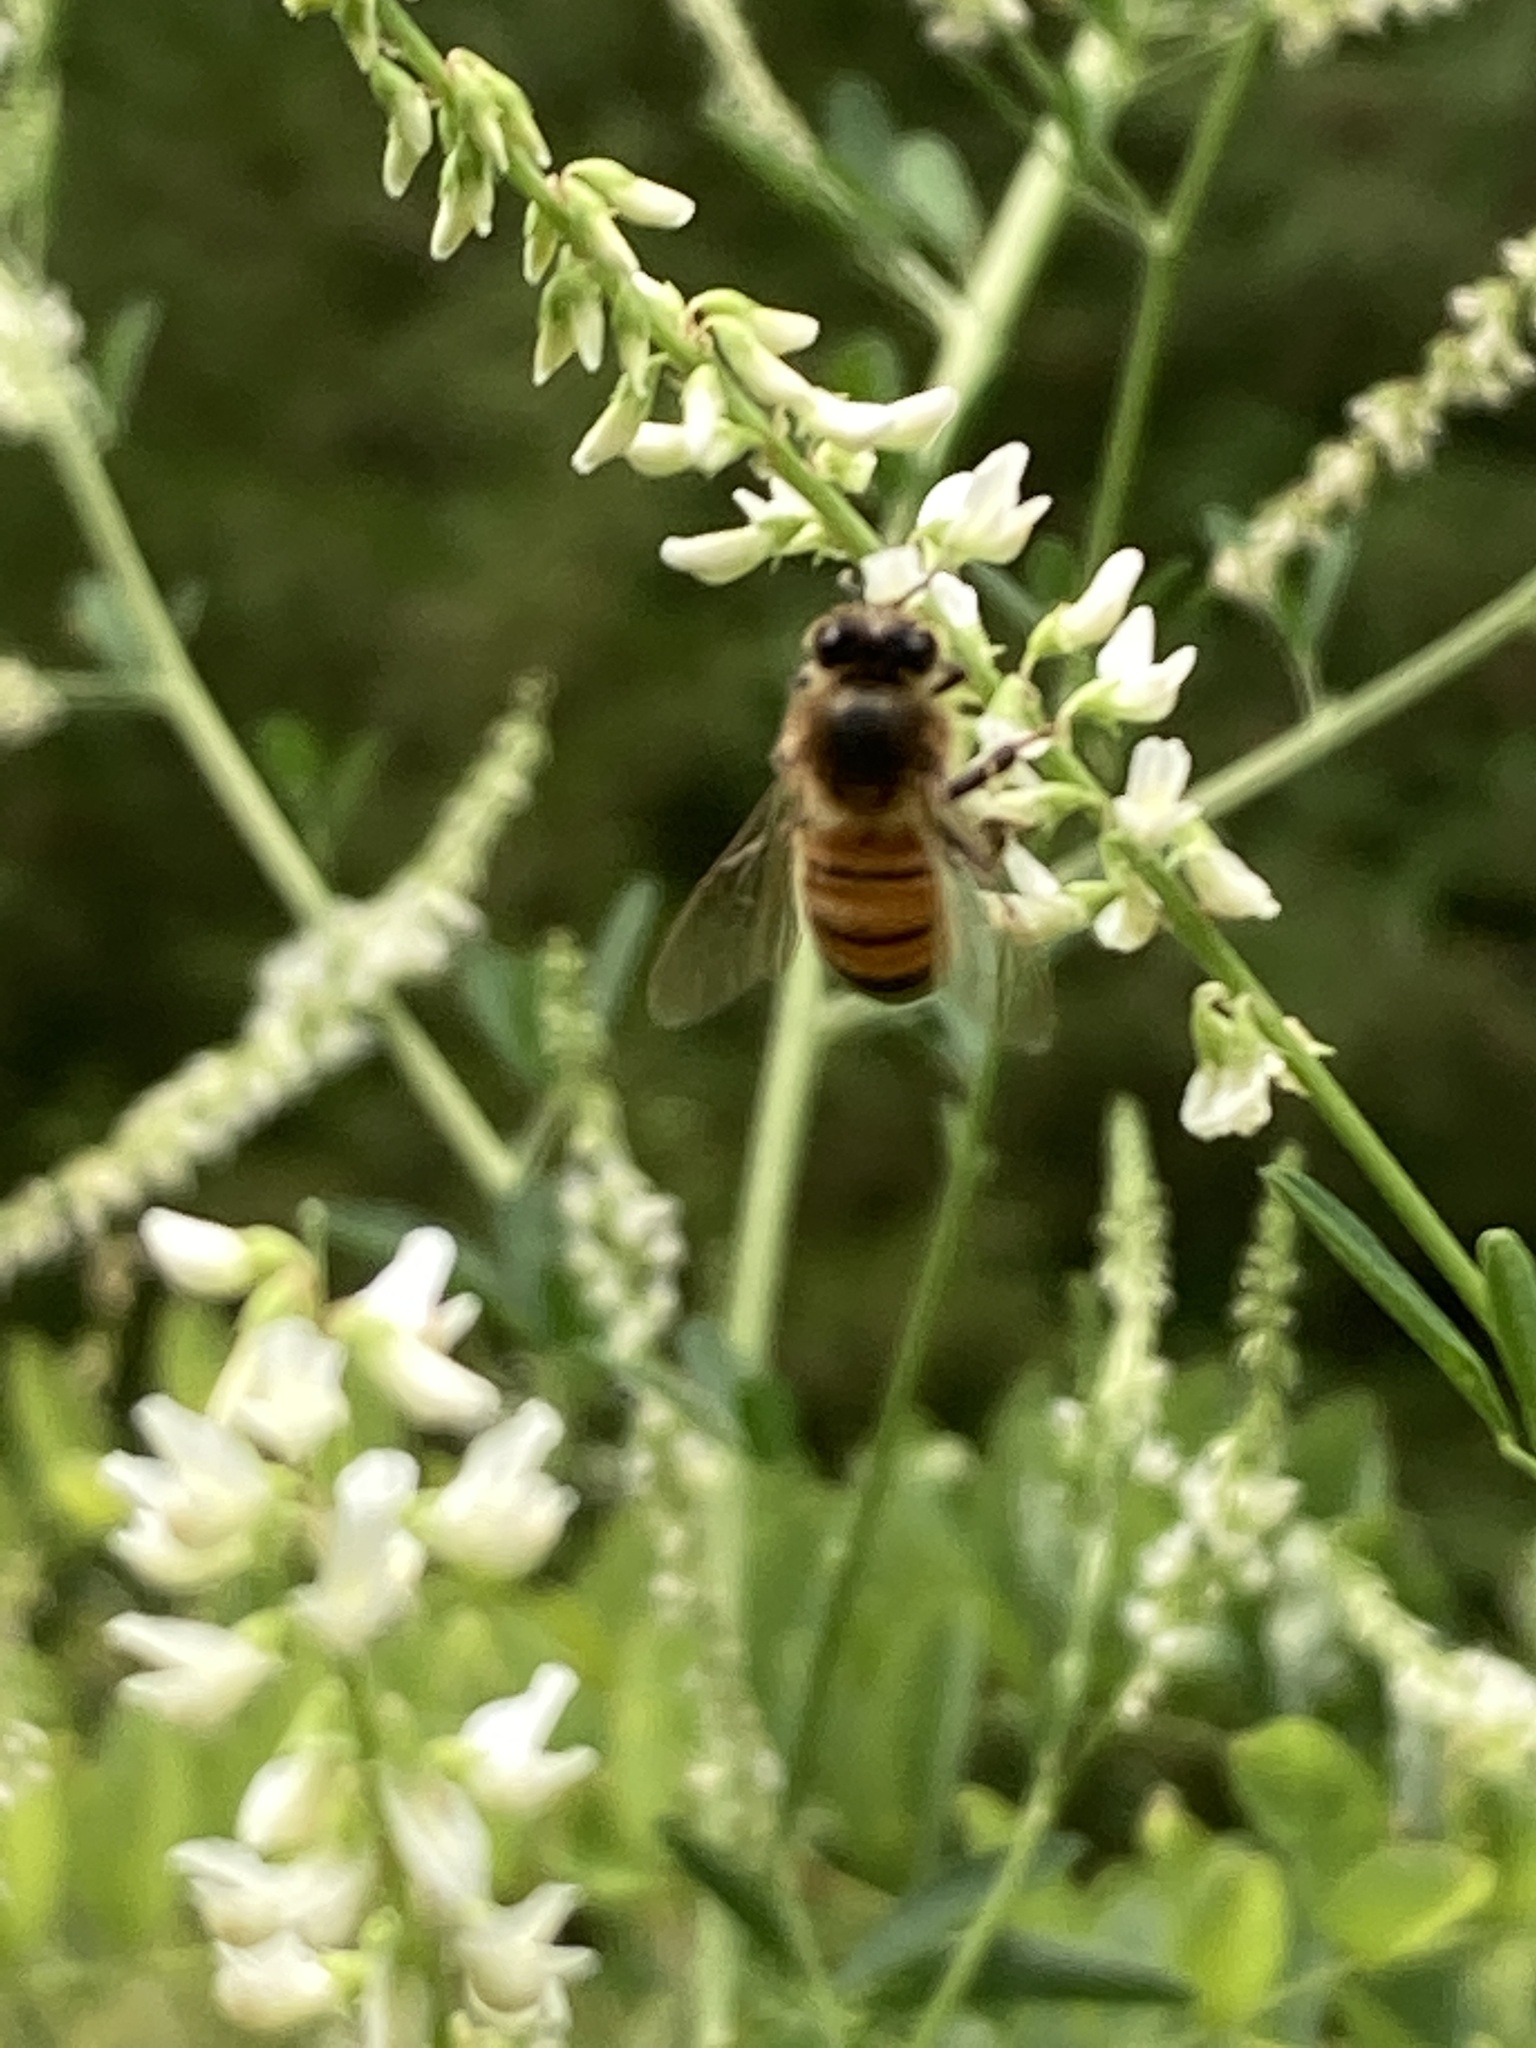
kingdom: Animalia
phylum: Arthropoda
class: Insecta
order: Hymenoptera
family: Apidae
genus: Apis
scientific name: Apis mellifera
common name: Honey bee
